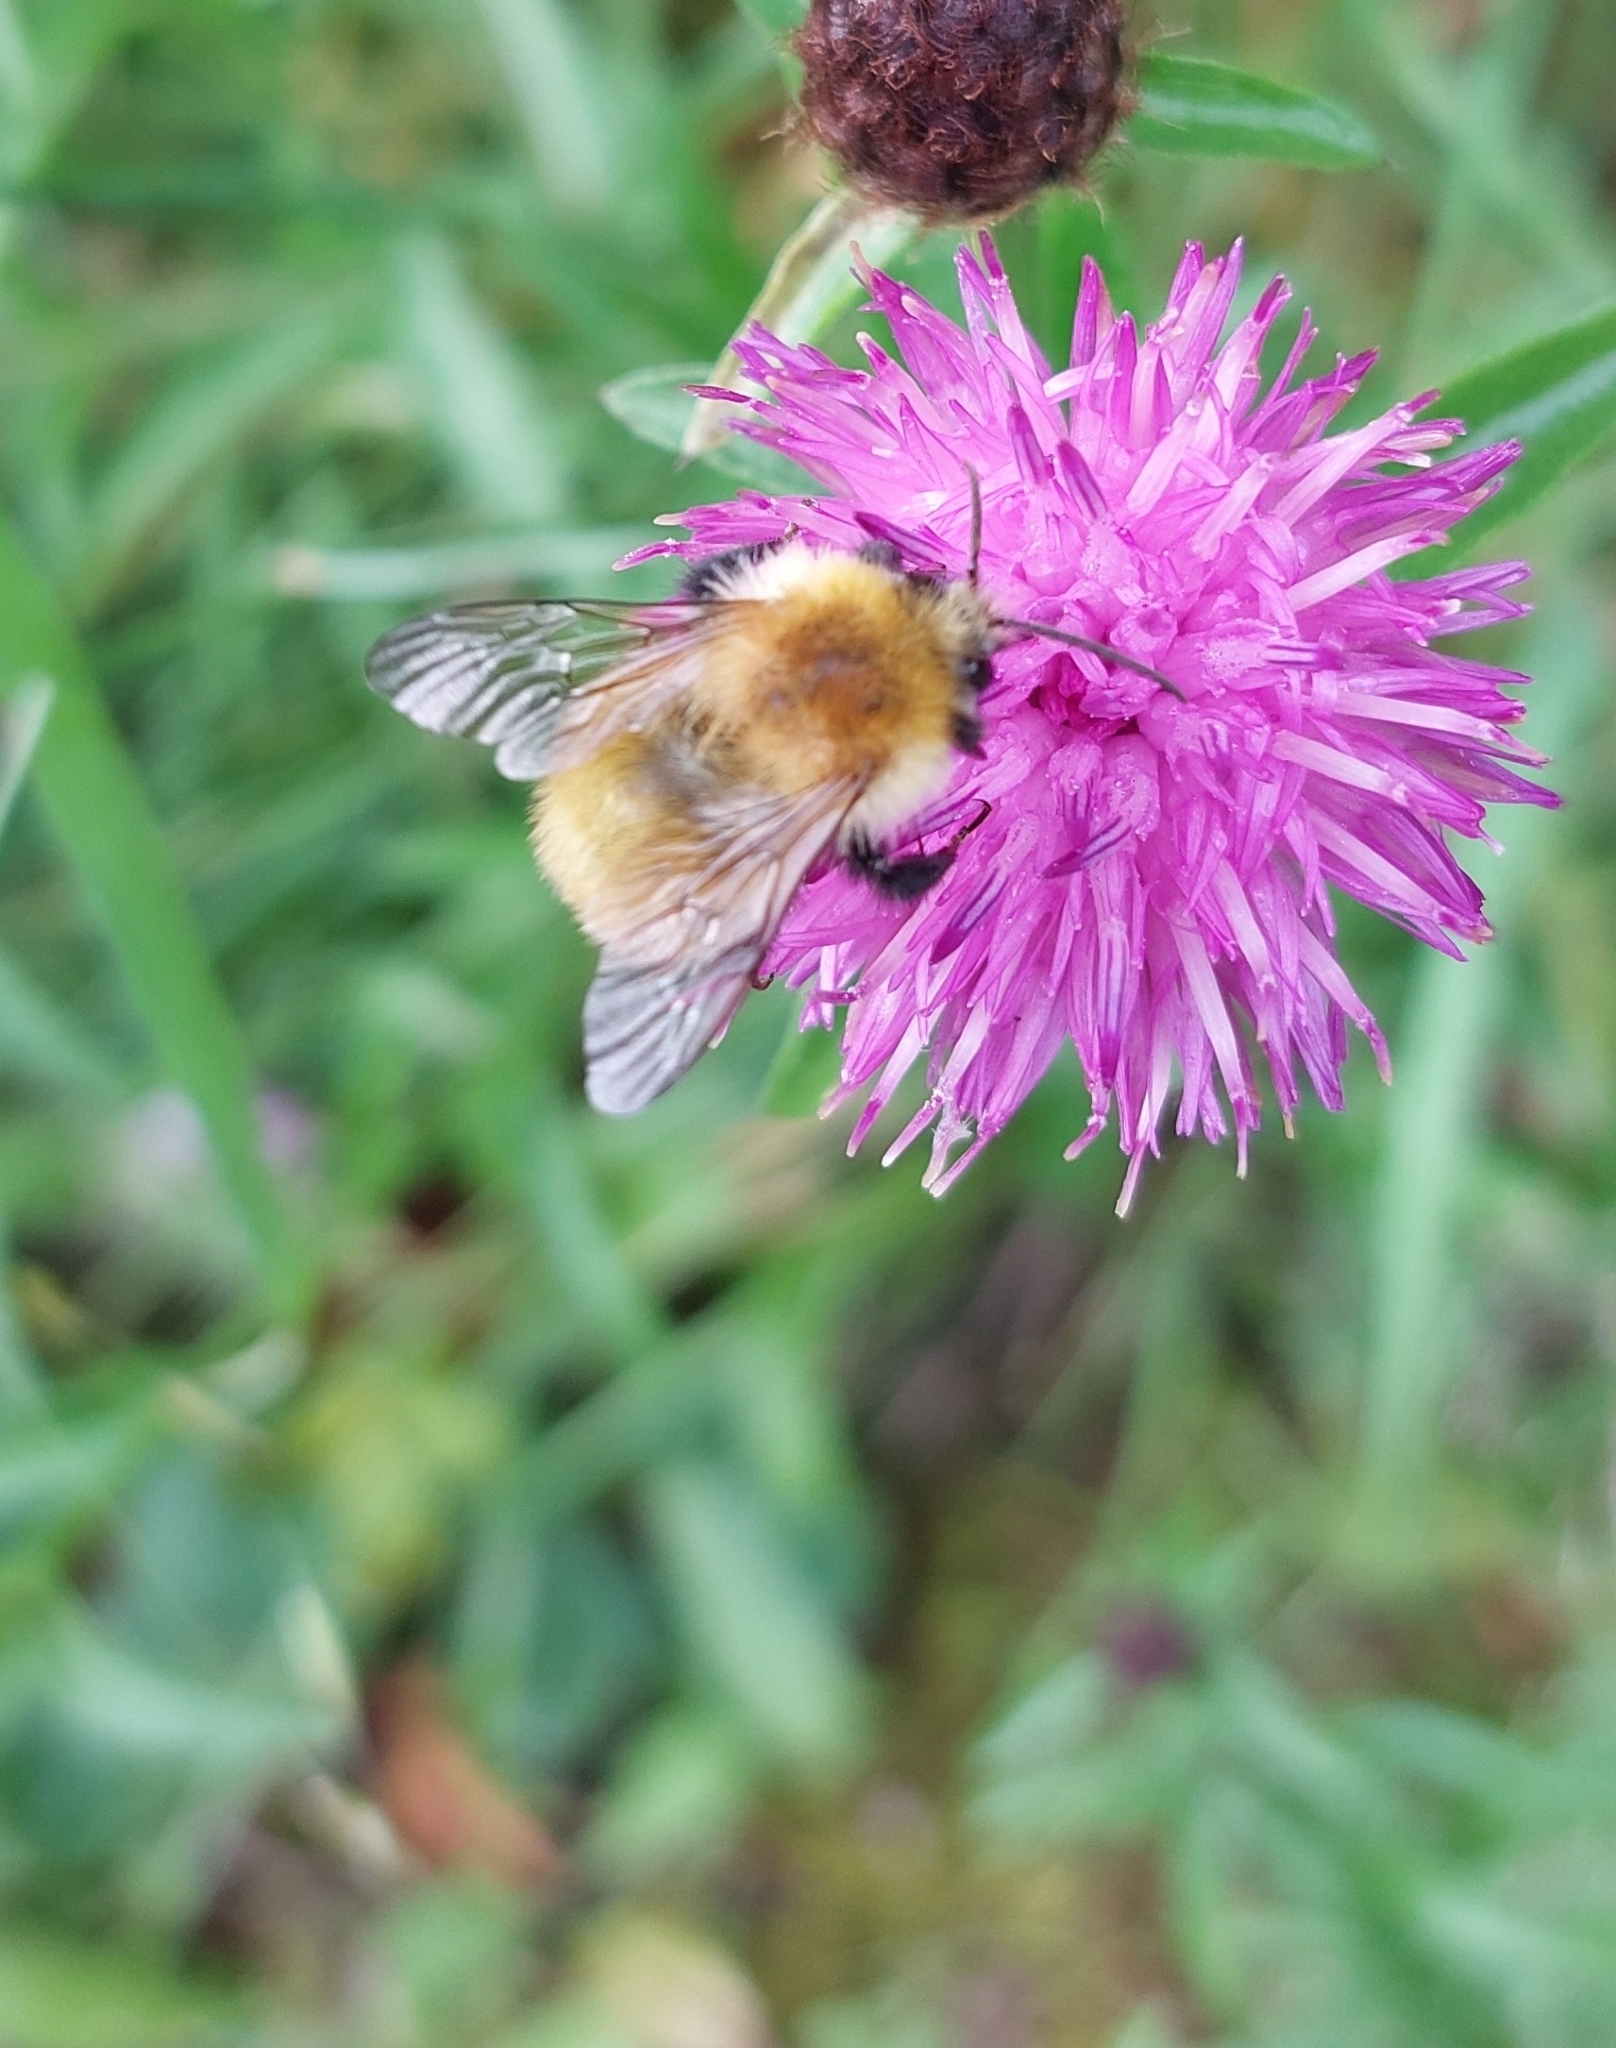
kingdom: Animalia
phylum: Arthropoda
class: Insecta
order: Hymenoptera
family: Apidae
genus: Bombus
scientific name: Bombus pascuorum
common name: Common carder bee
